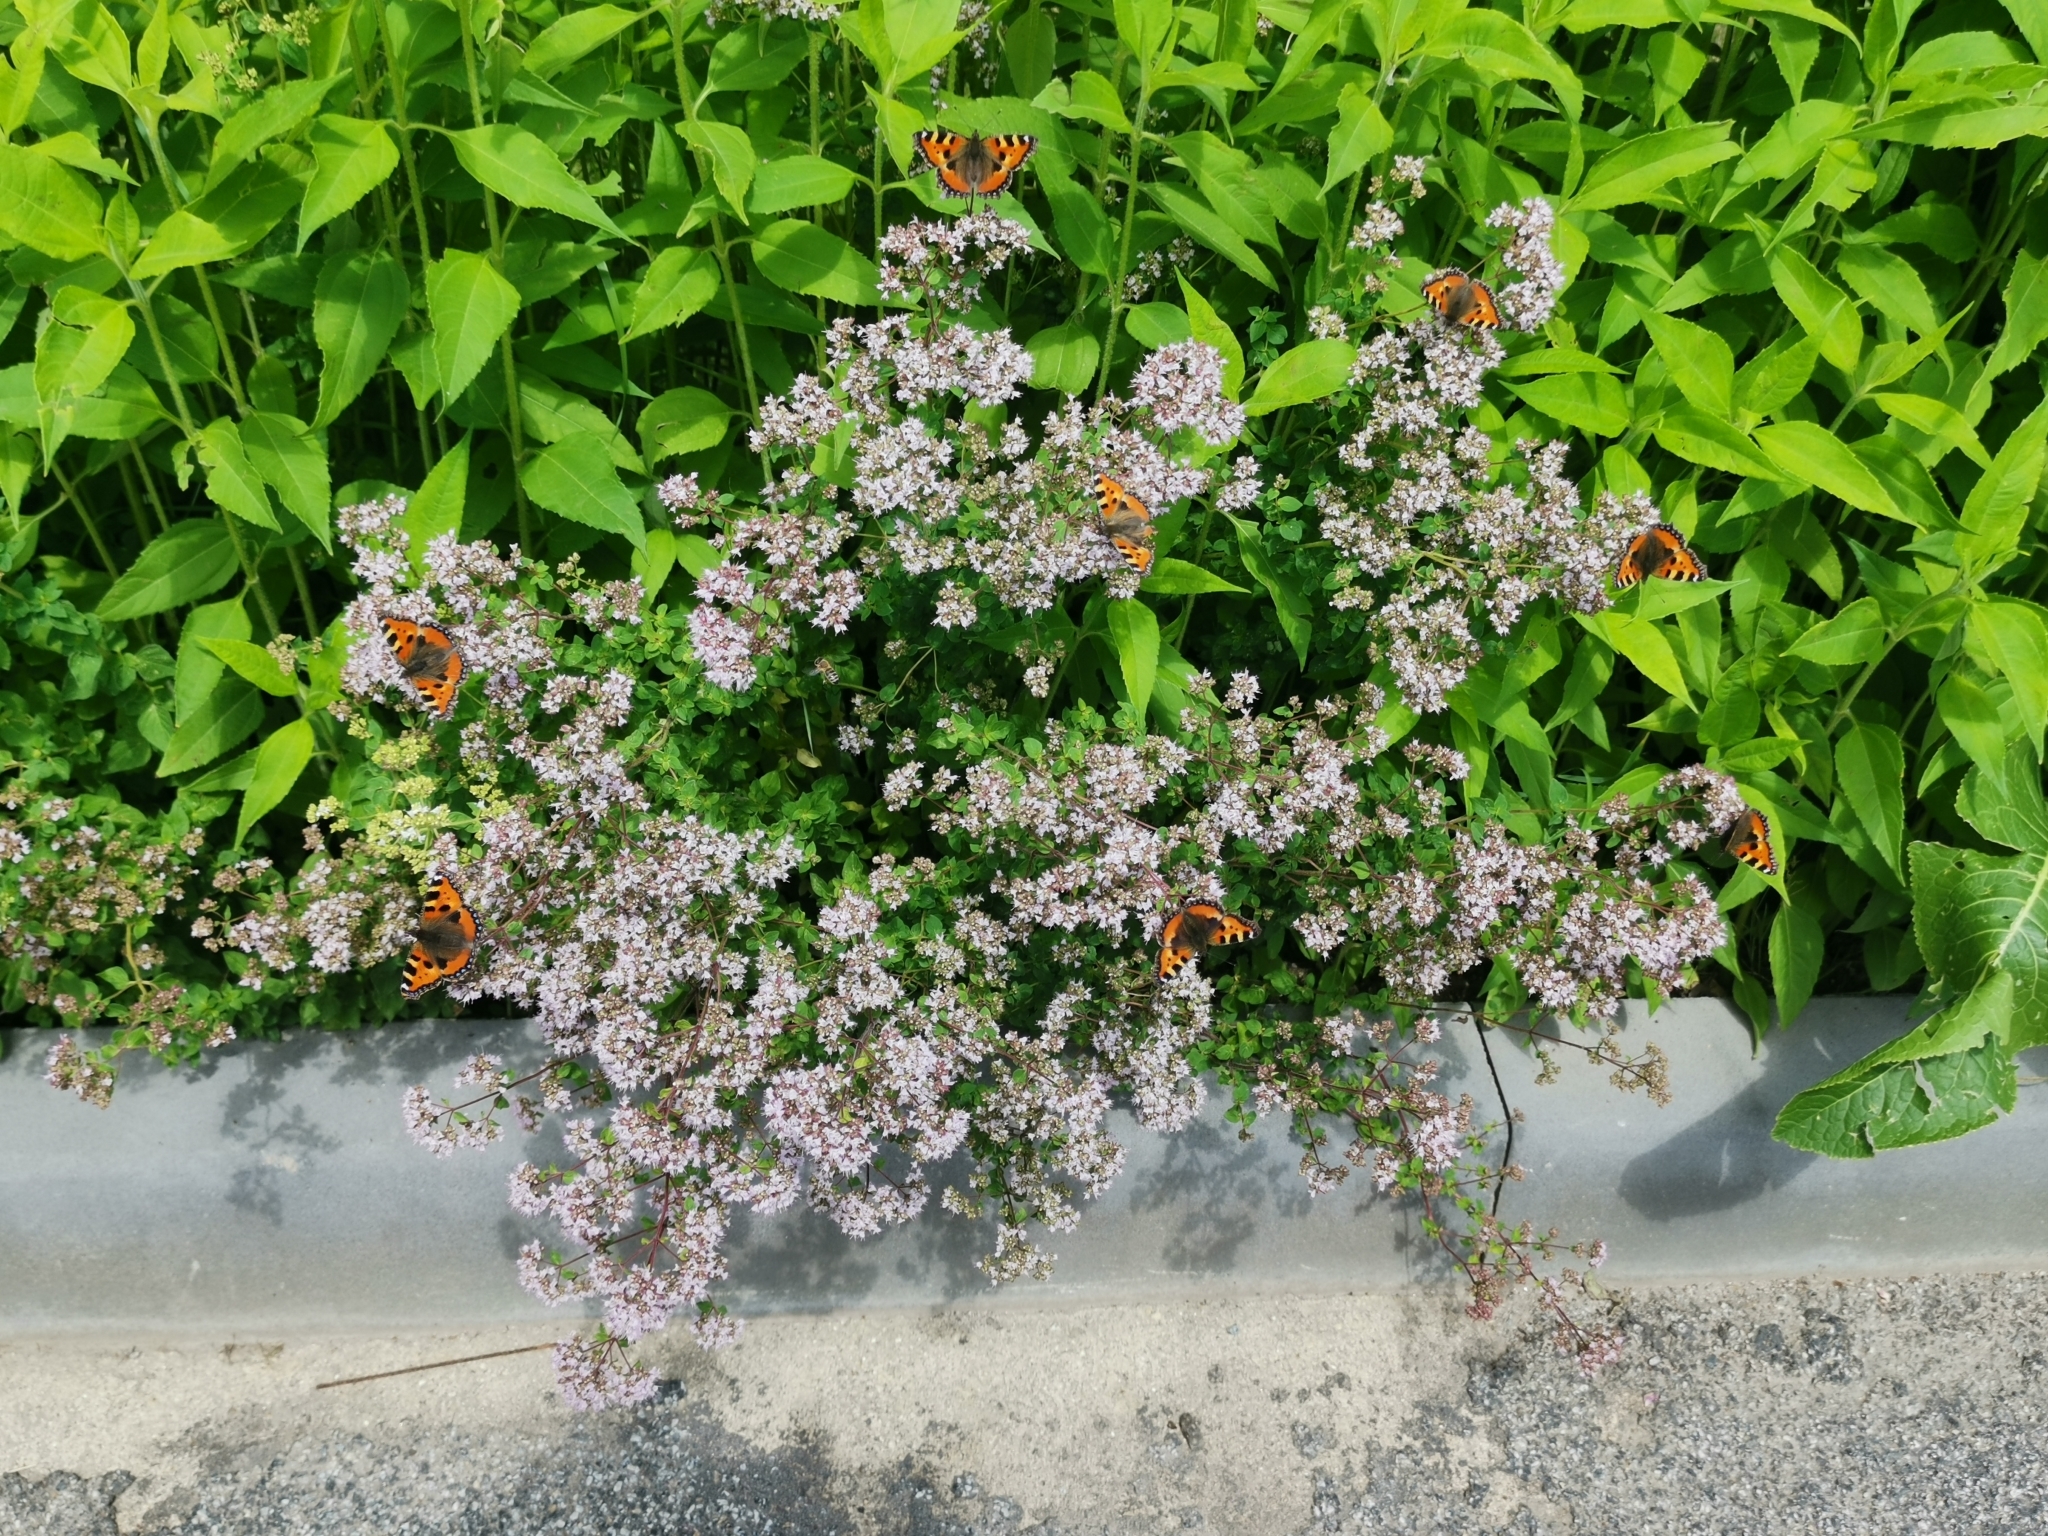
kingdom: Animalia
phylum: Arthropoda
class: Insecta
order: Lepidoptera
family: Nymphalidae
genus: Aglais
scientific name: Aglais urticae
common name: Small tortoiseshell
